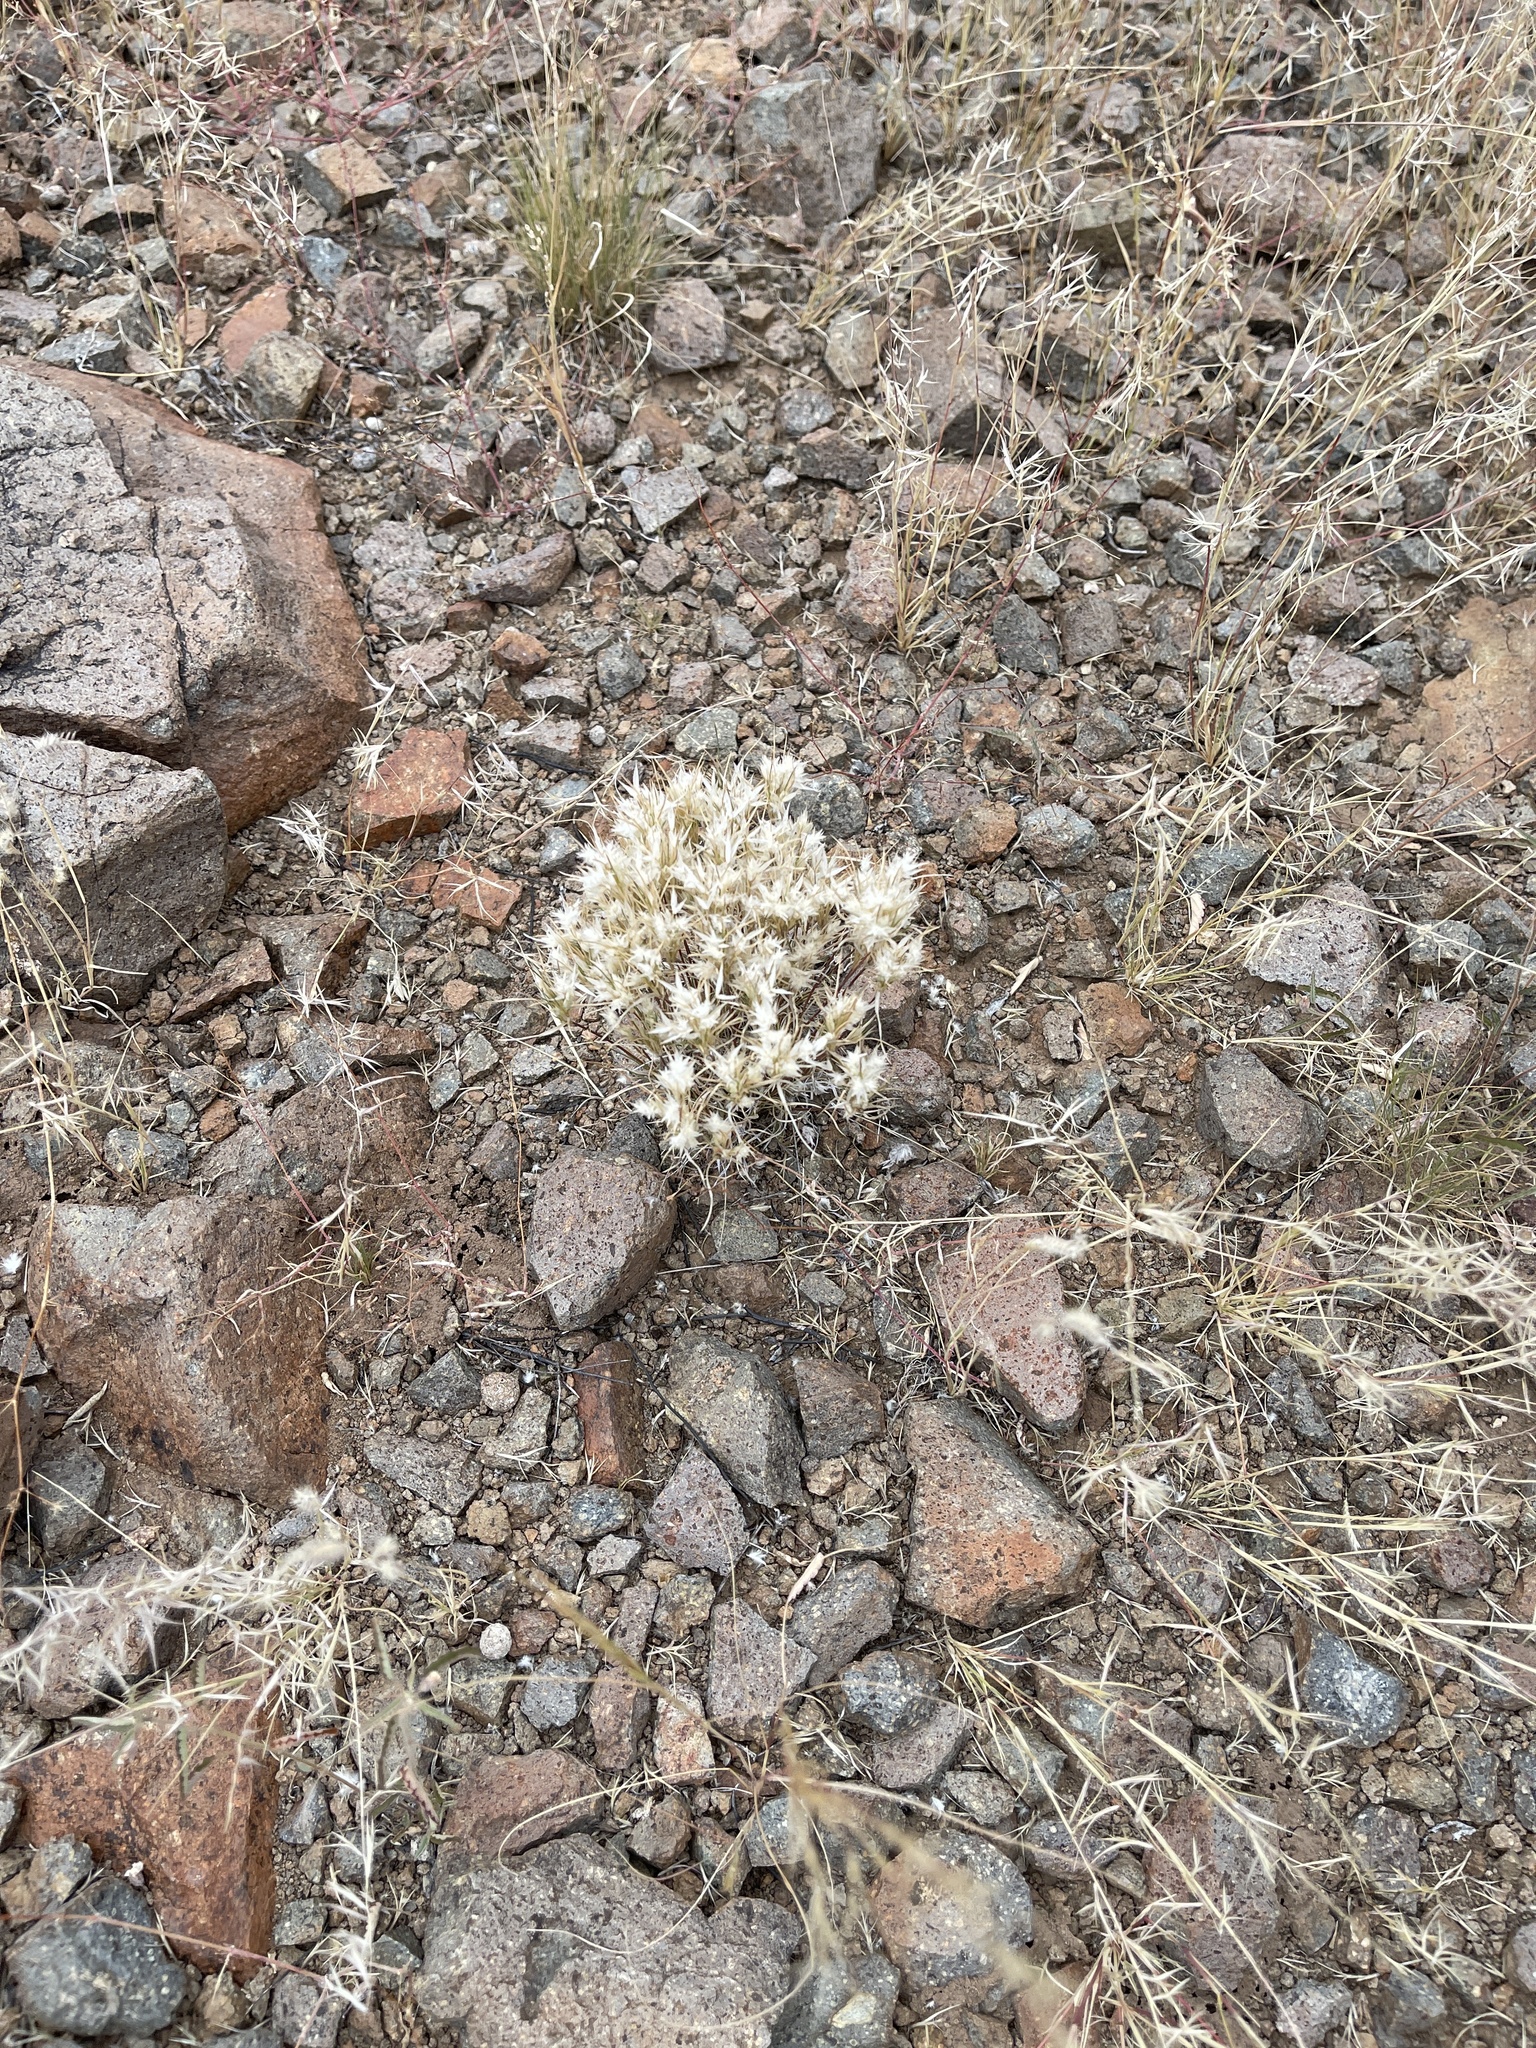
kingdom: Plantae
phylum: Tracheophyta
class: Liliopsida
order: Poales
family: Poaceae
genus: Dasyochloa
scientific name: Dasyochloa pulchella
